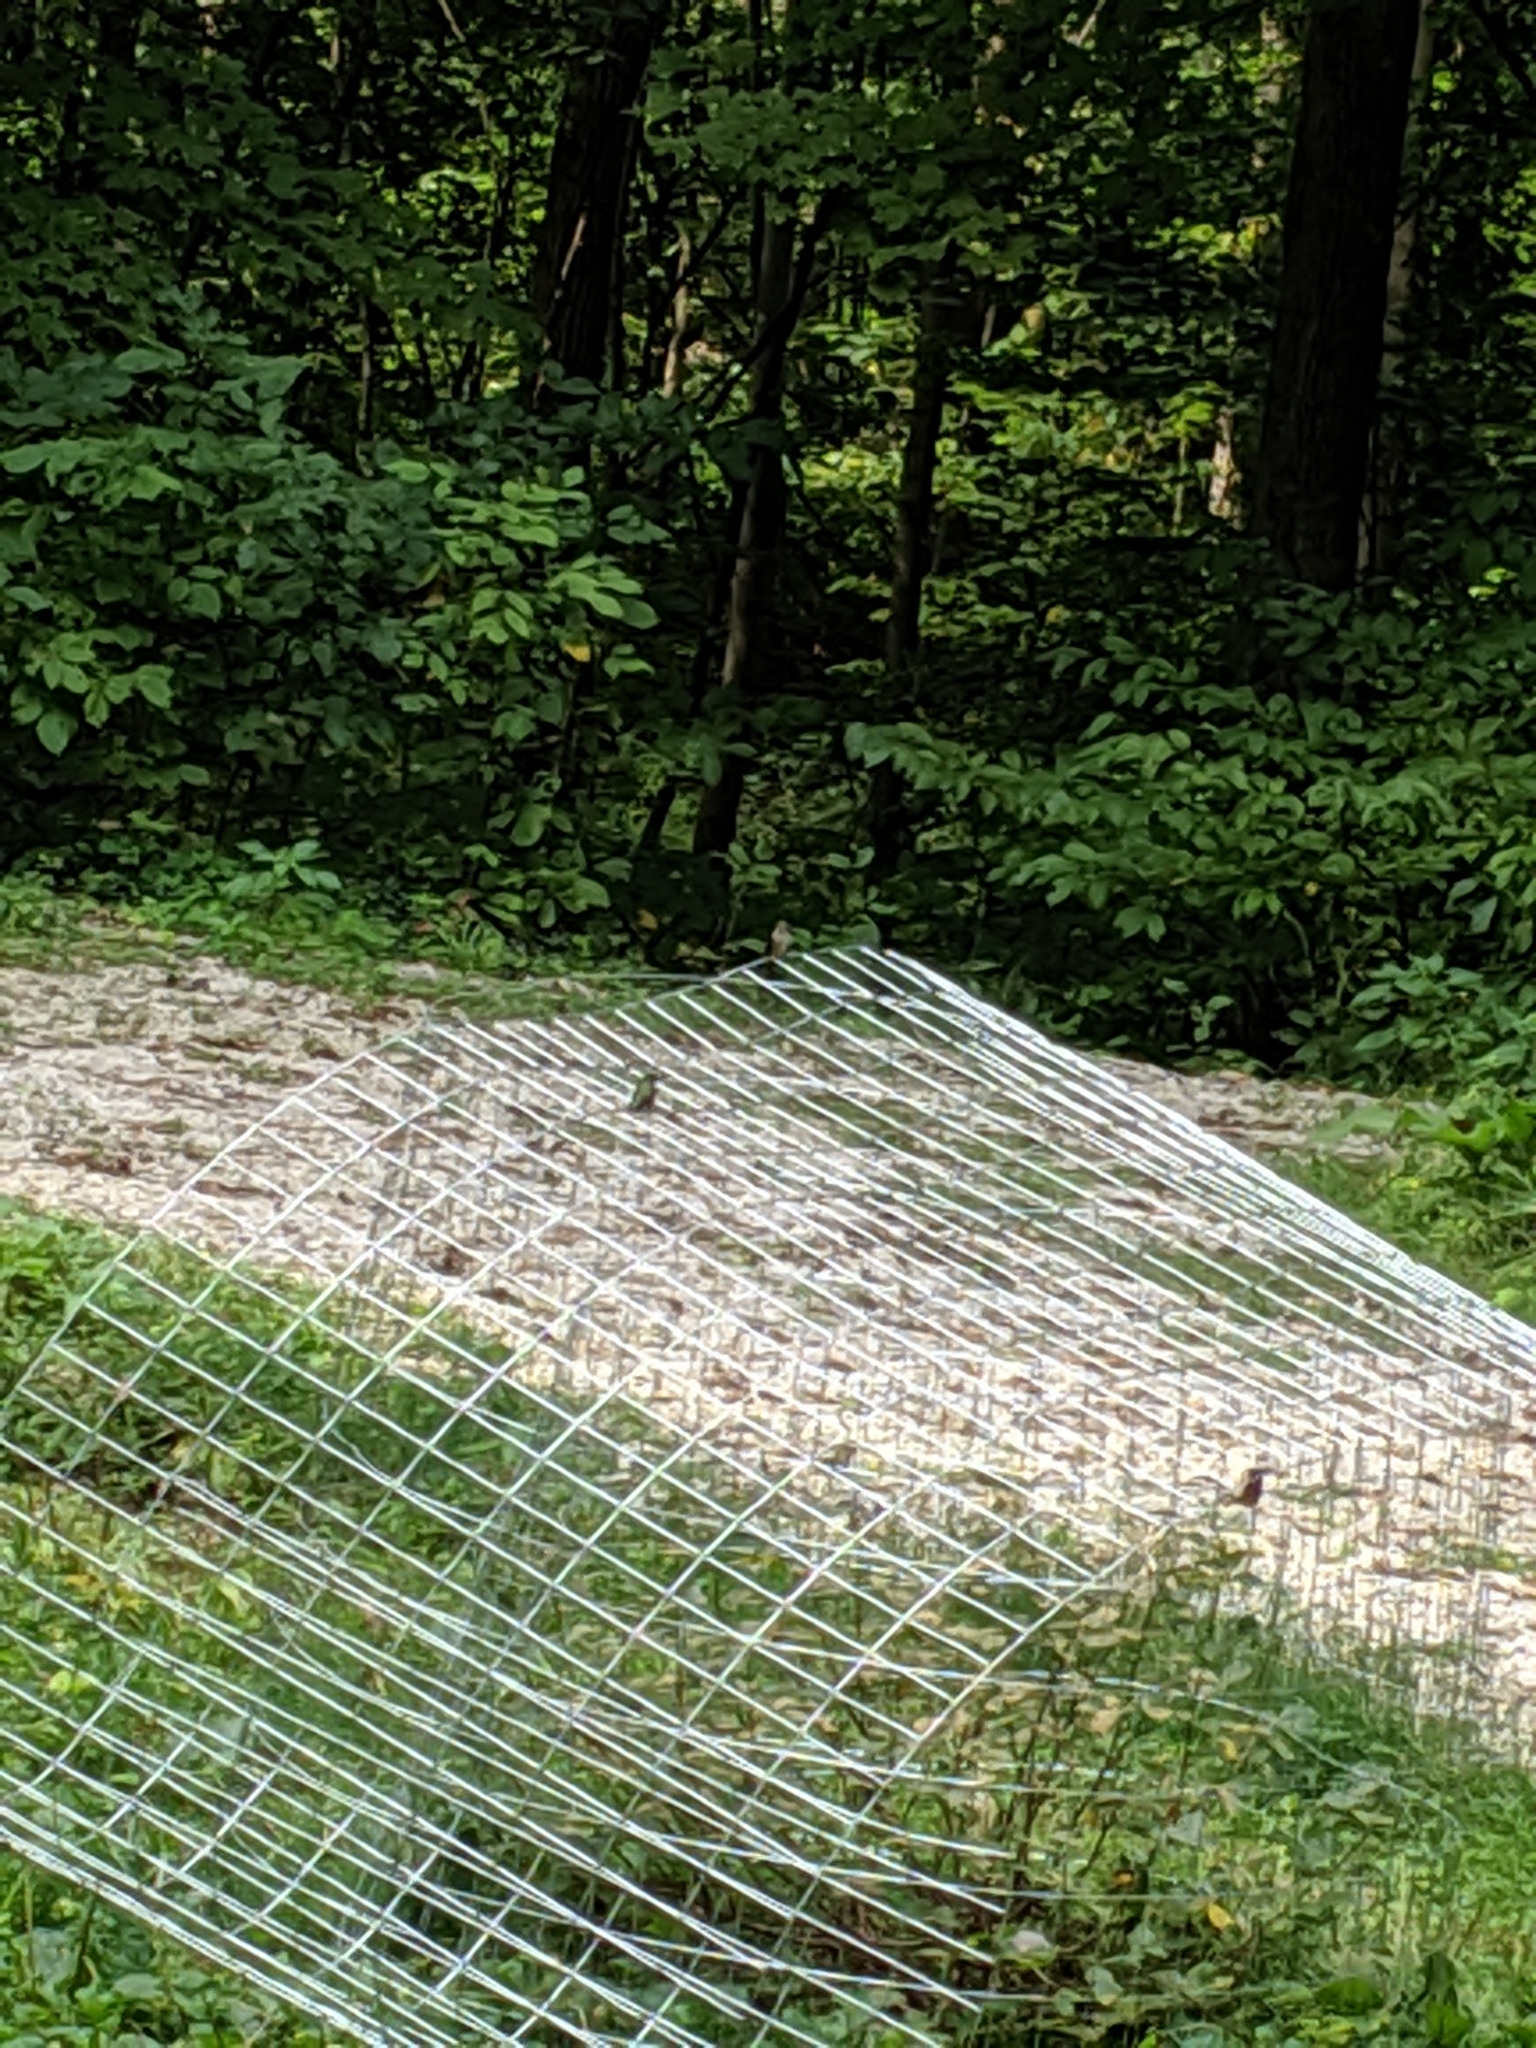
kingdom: Animalia
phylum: Chordata
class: Aves
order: Apodiformes
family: Trochilidae
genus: Archilochus
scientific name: Archilochus colubris
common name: Ruby-throated hummingbird
